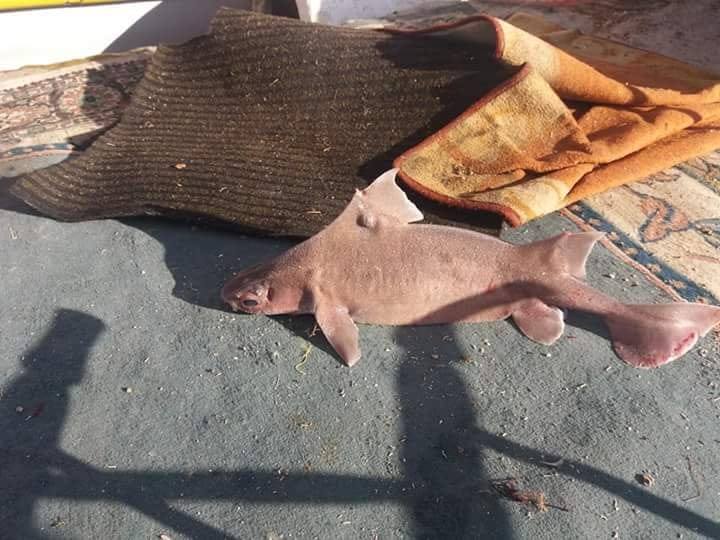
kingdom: Animalia
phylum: Chordata
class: Elasmobranchii
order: Squaliformes
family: Oxynotidae
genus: Oxynotus
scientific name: Oxynotus centrina
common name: Angular roughshark
